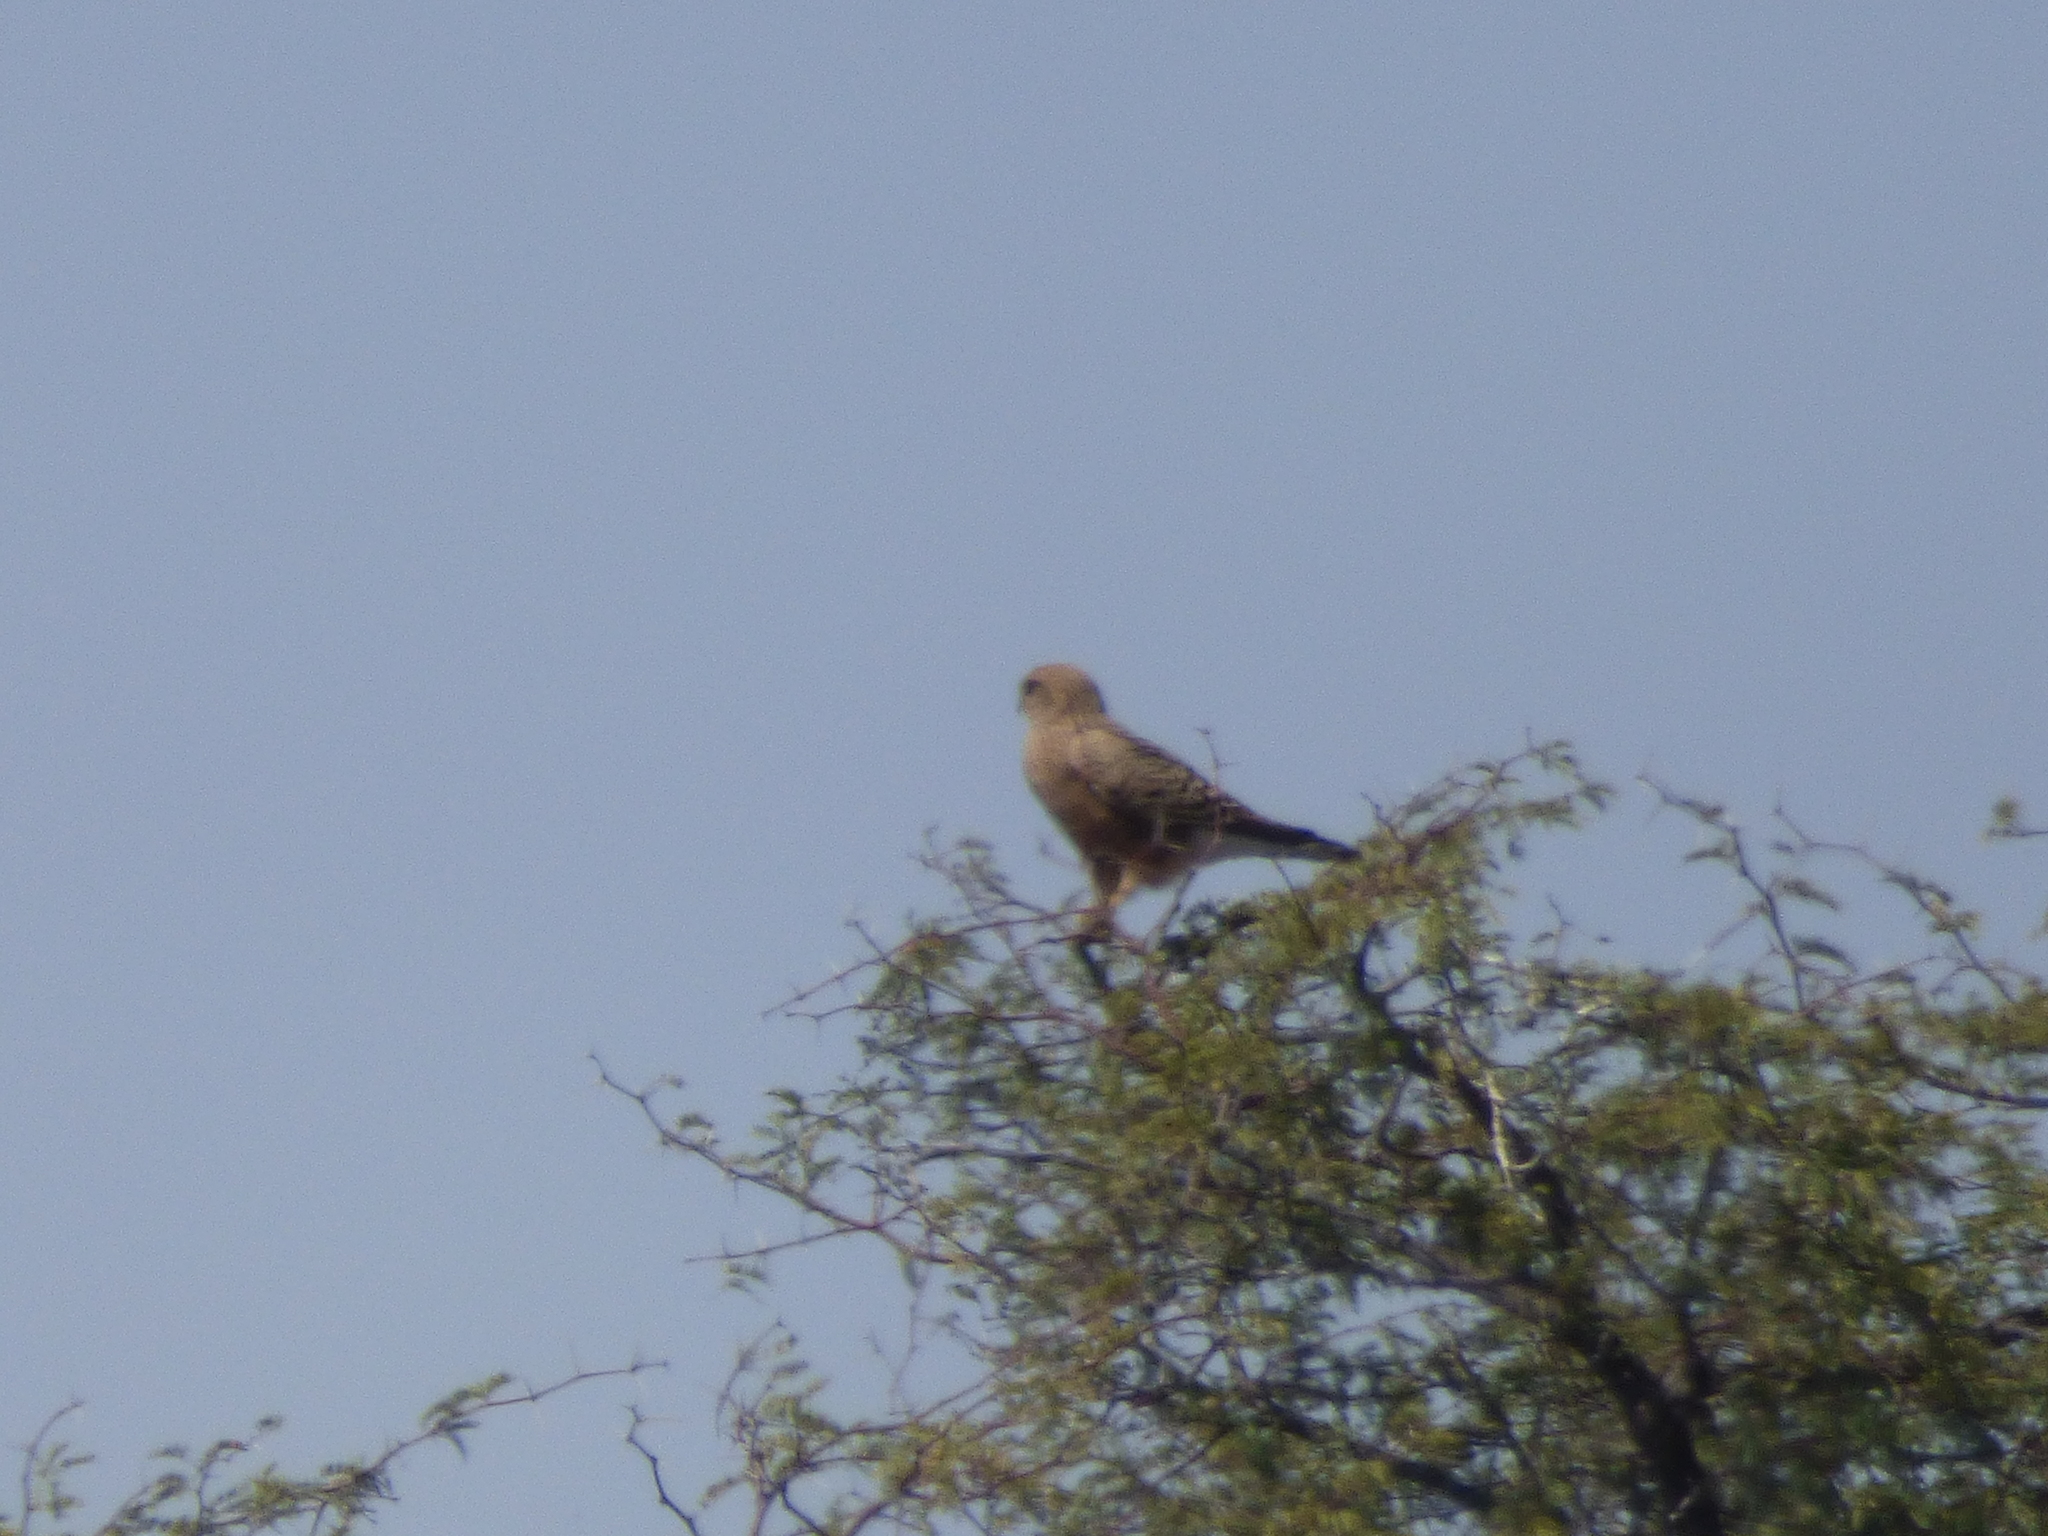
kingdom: Animalia
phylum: Chordata
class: Aves
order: Falconiformes
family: Falconidae
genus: Falco
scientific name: Falco rupicoloides
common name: Greater kestrel
